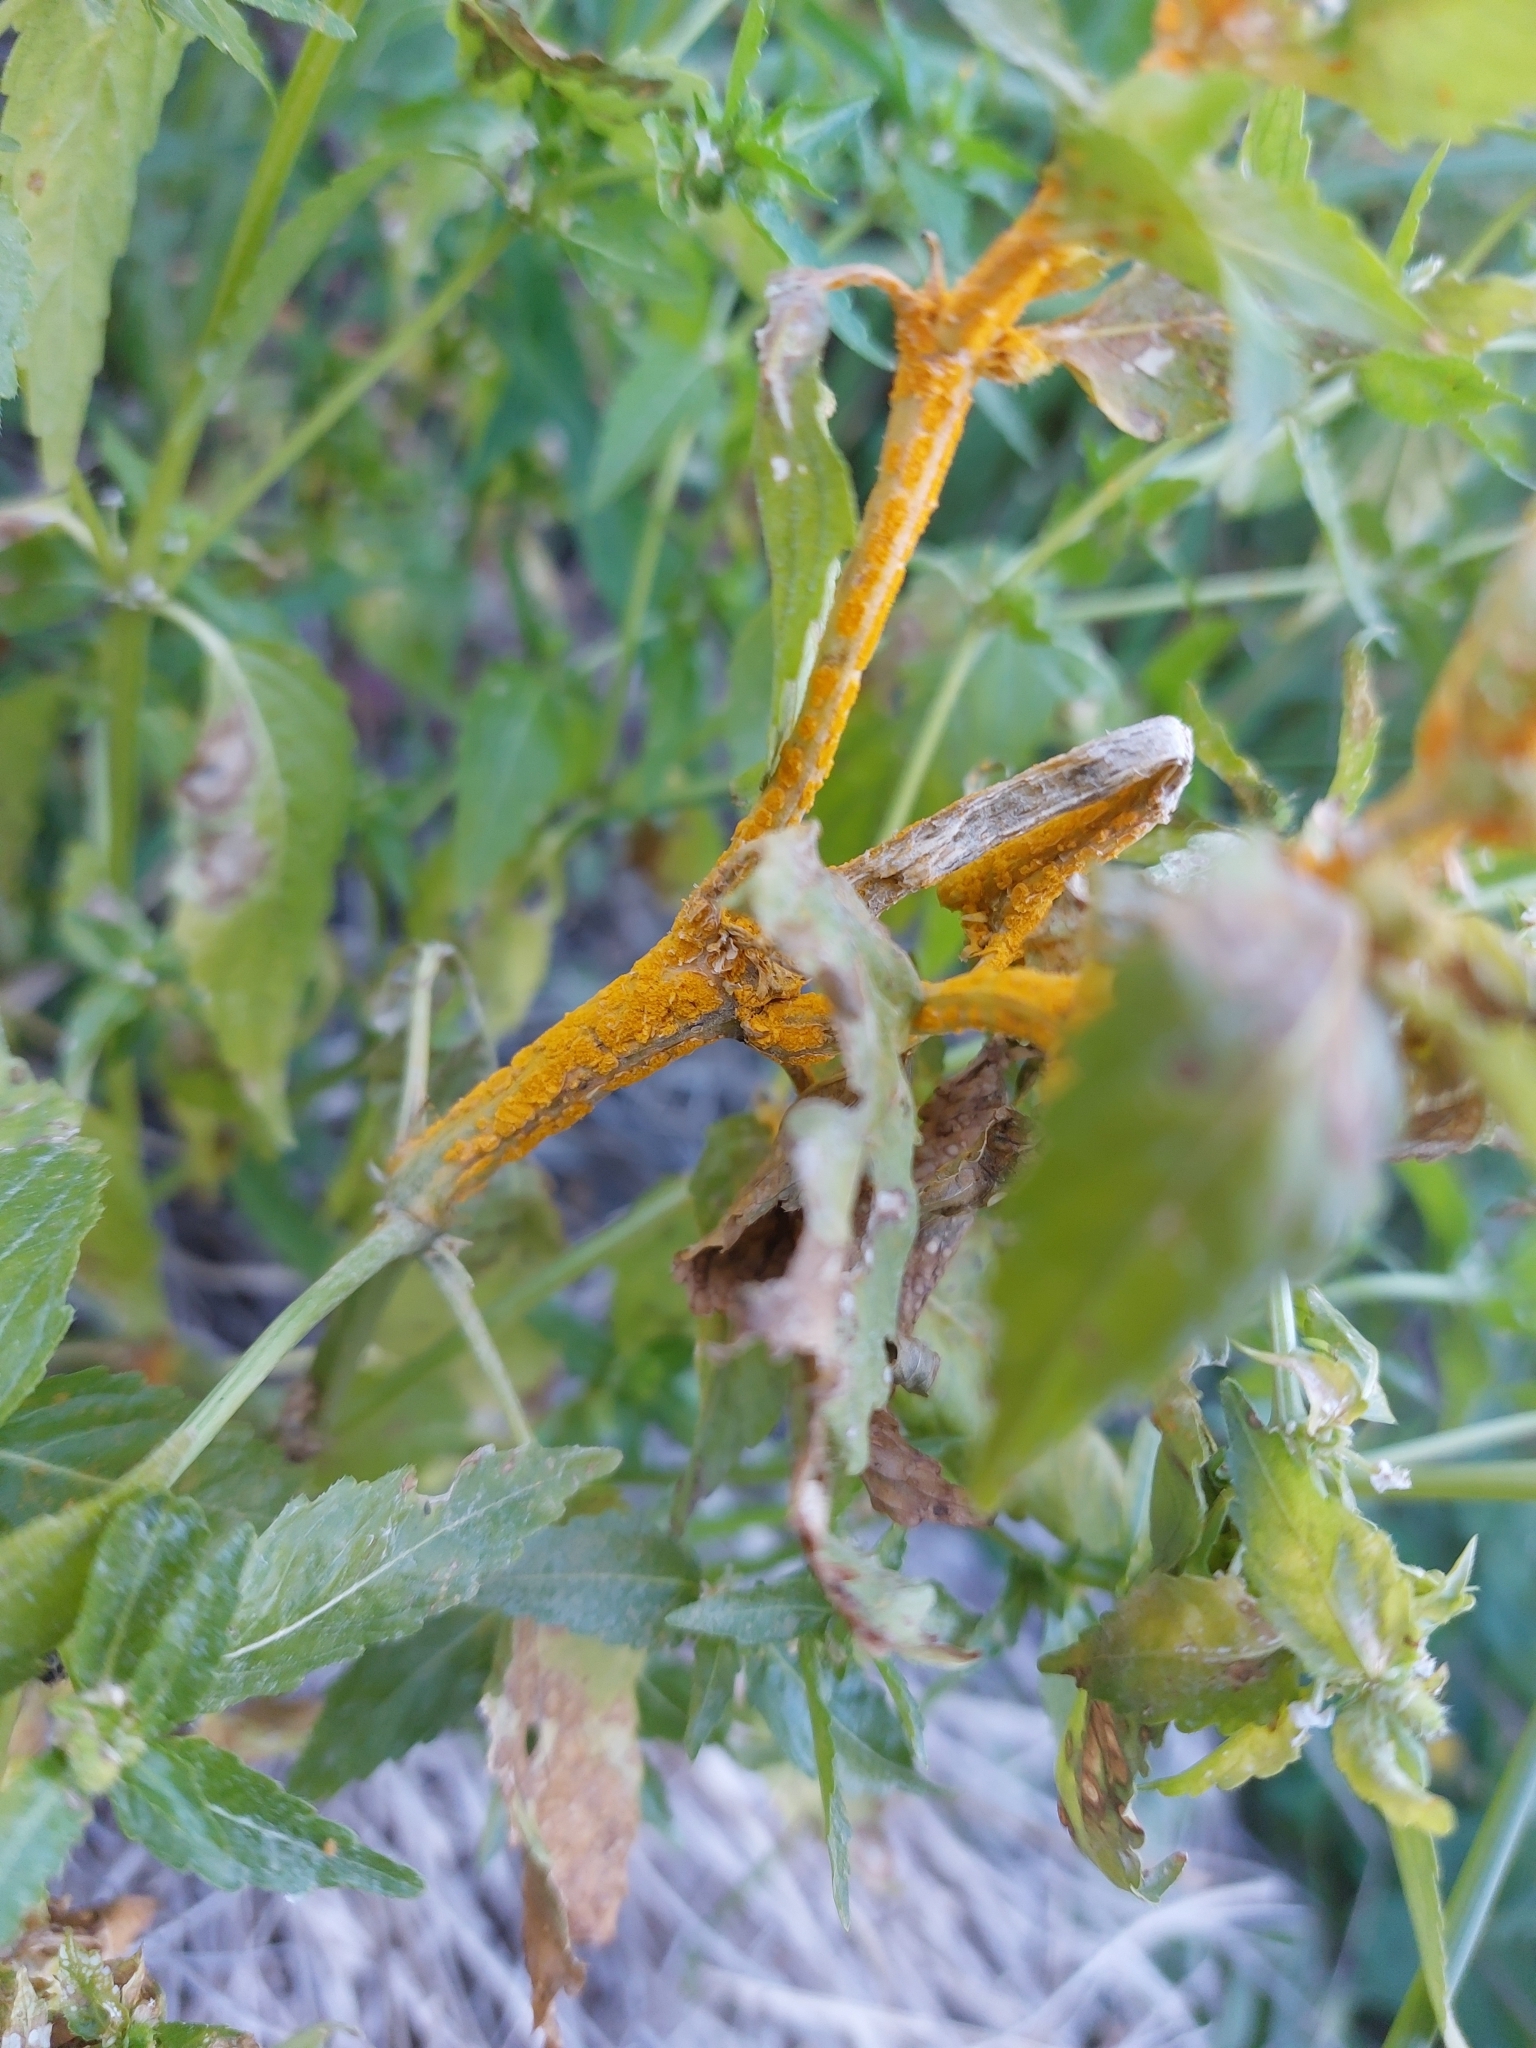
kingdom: Fungi
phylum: Basidiomycota
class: Pucciniomycetes
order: Pucciniales
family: Melampsoraceae
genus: Melampsora
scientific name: Melampsora pulcherrima
